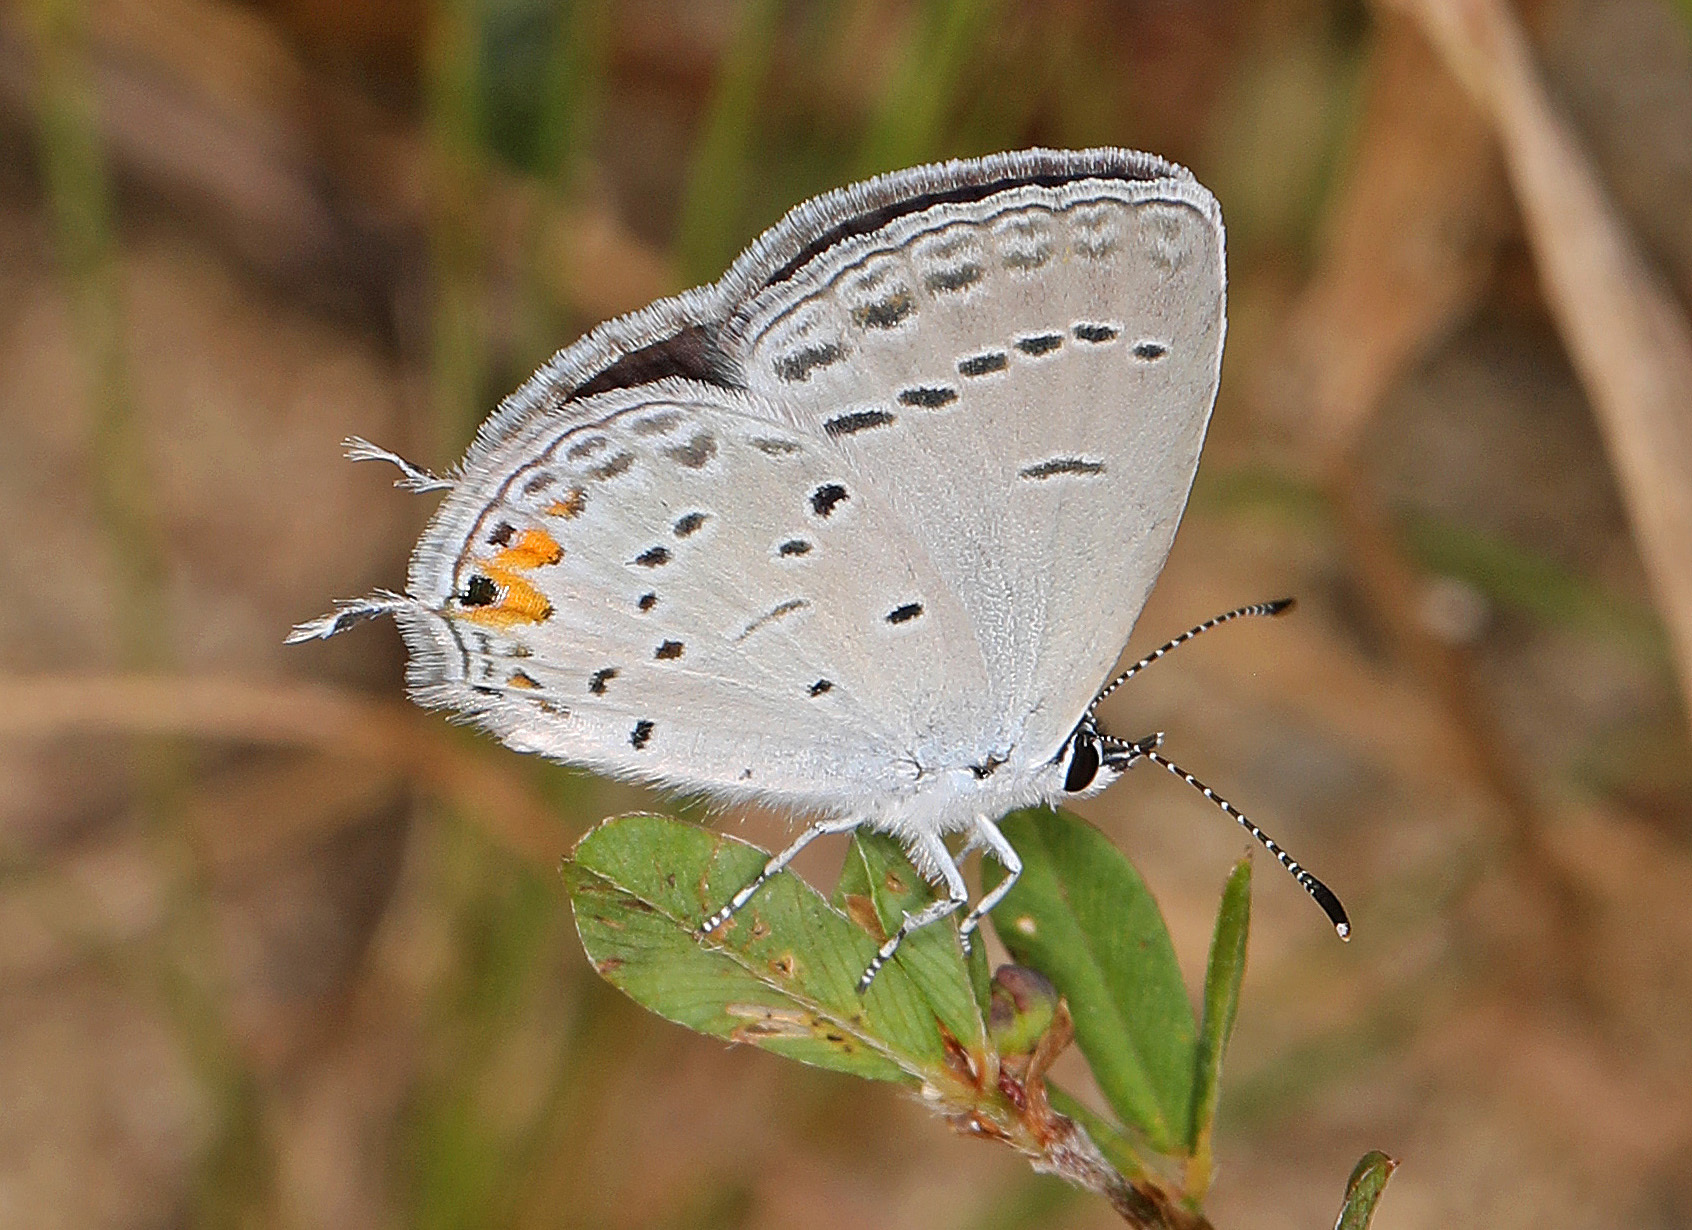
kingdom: Animalia
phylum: Arthropoda
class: Insecta
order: Lepidoptera
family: Lycaenidae
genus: Elkalyce
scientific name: Elkalyce comyntas
